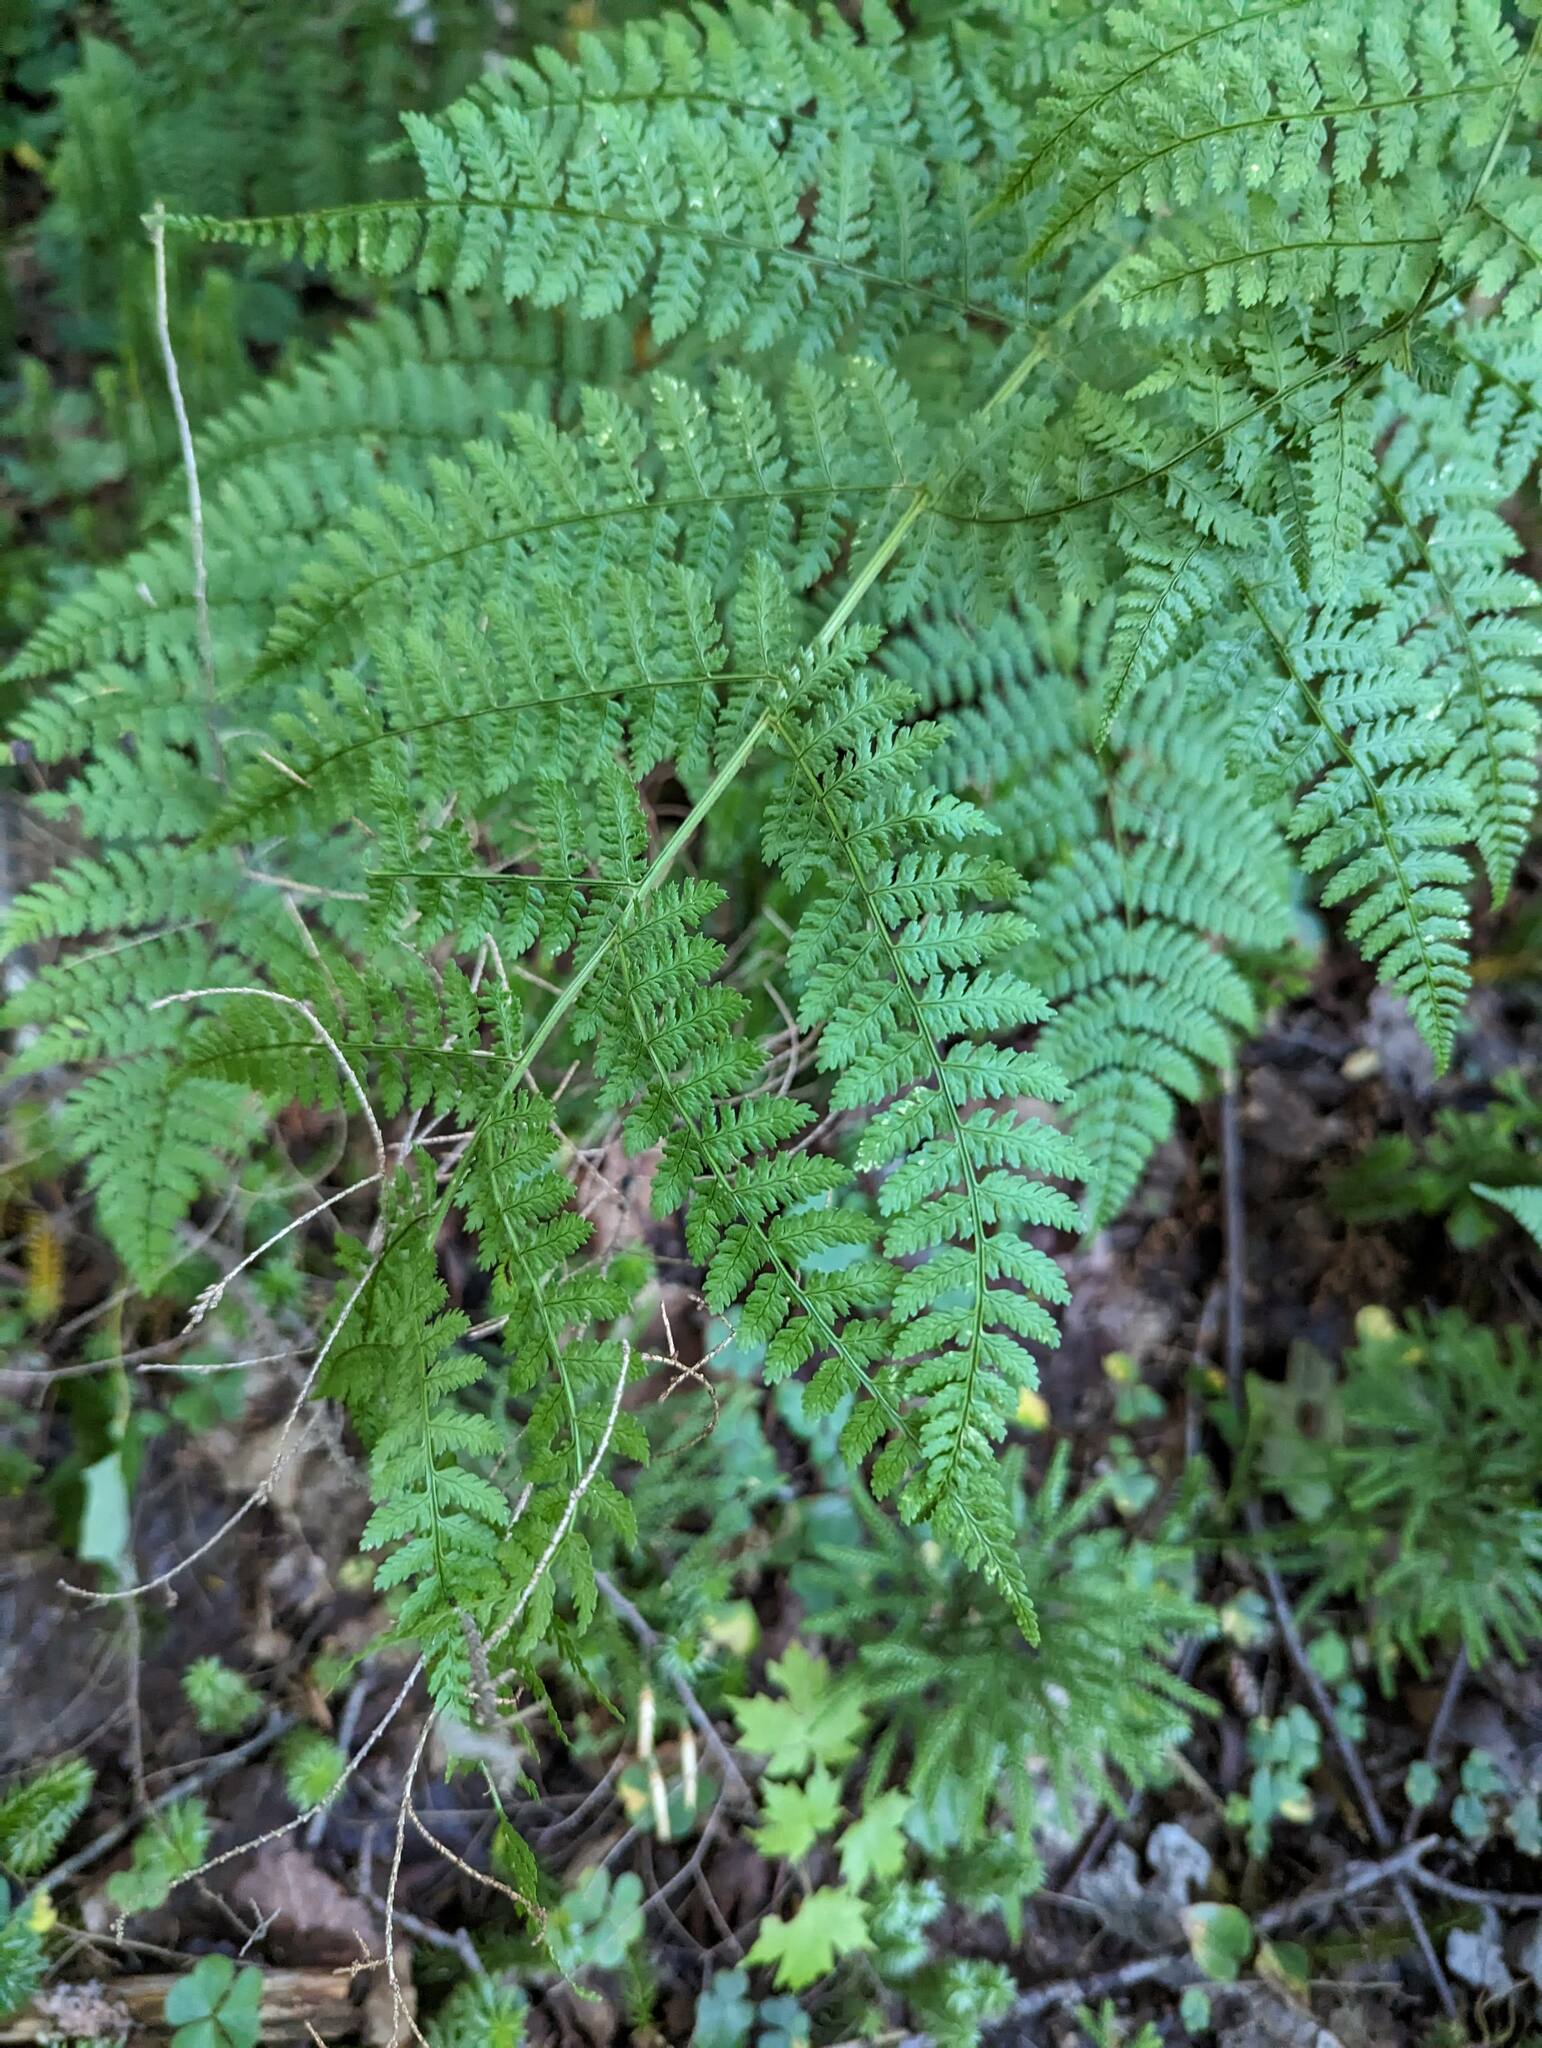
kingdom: Plantae
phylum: Tracheophyta
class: Polypodiopsida
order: Polypodiales
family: Dryopteridaceae
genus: Dryopteris
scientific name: Dryopteris intermedia
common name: Evergreen wood fern
